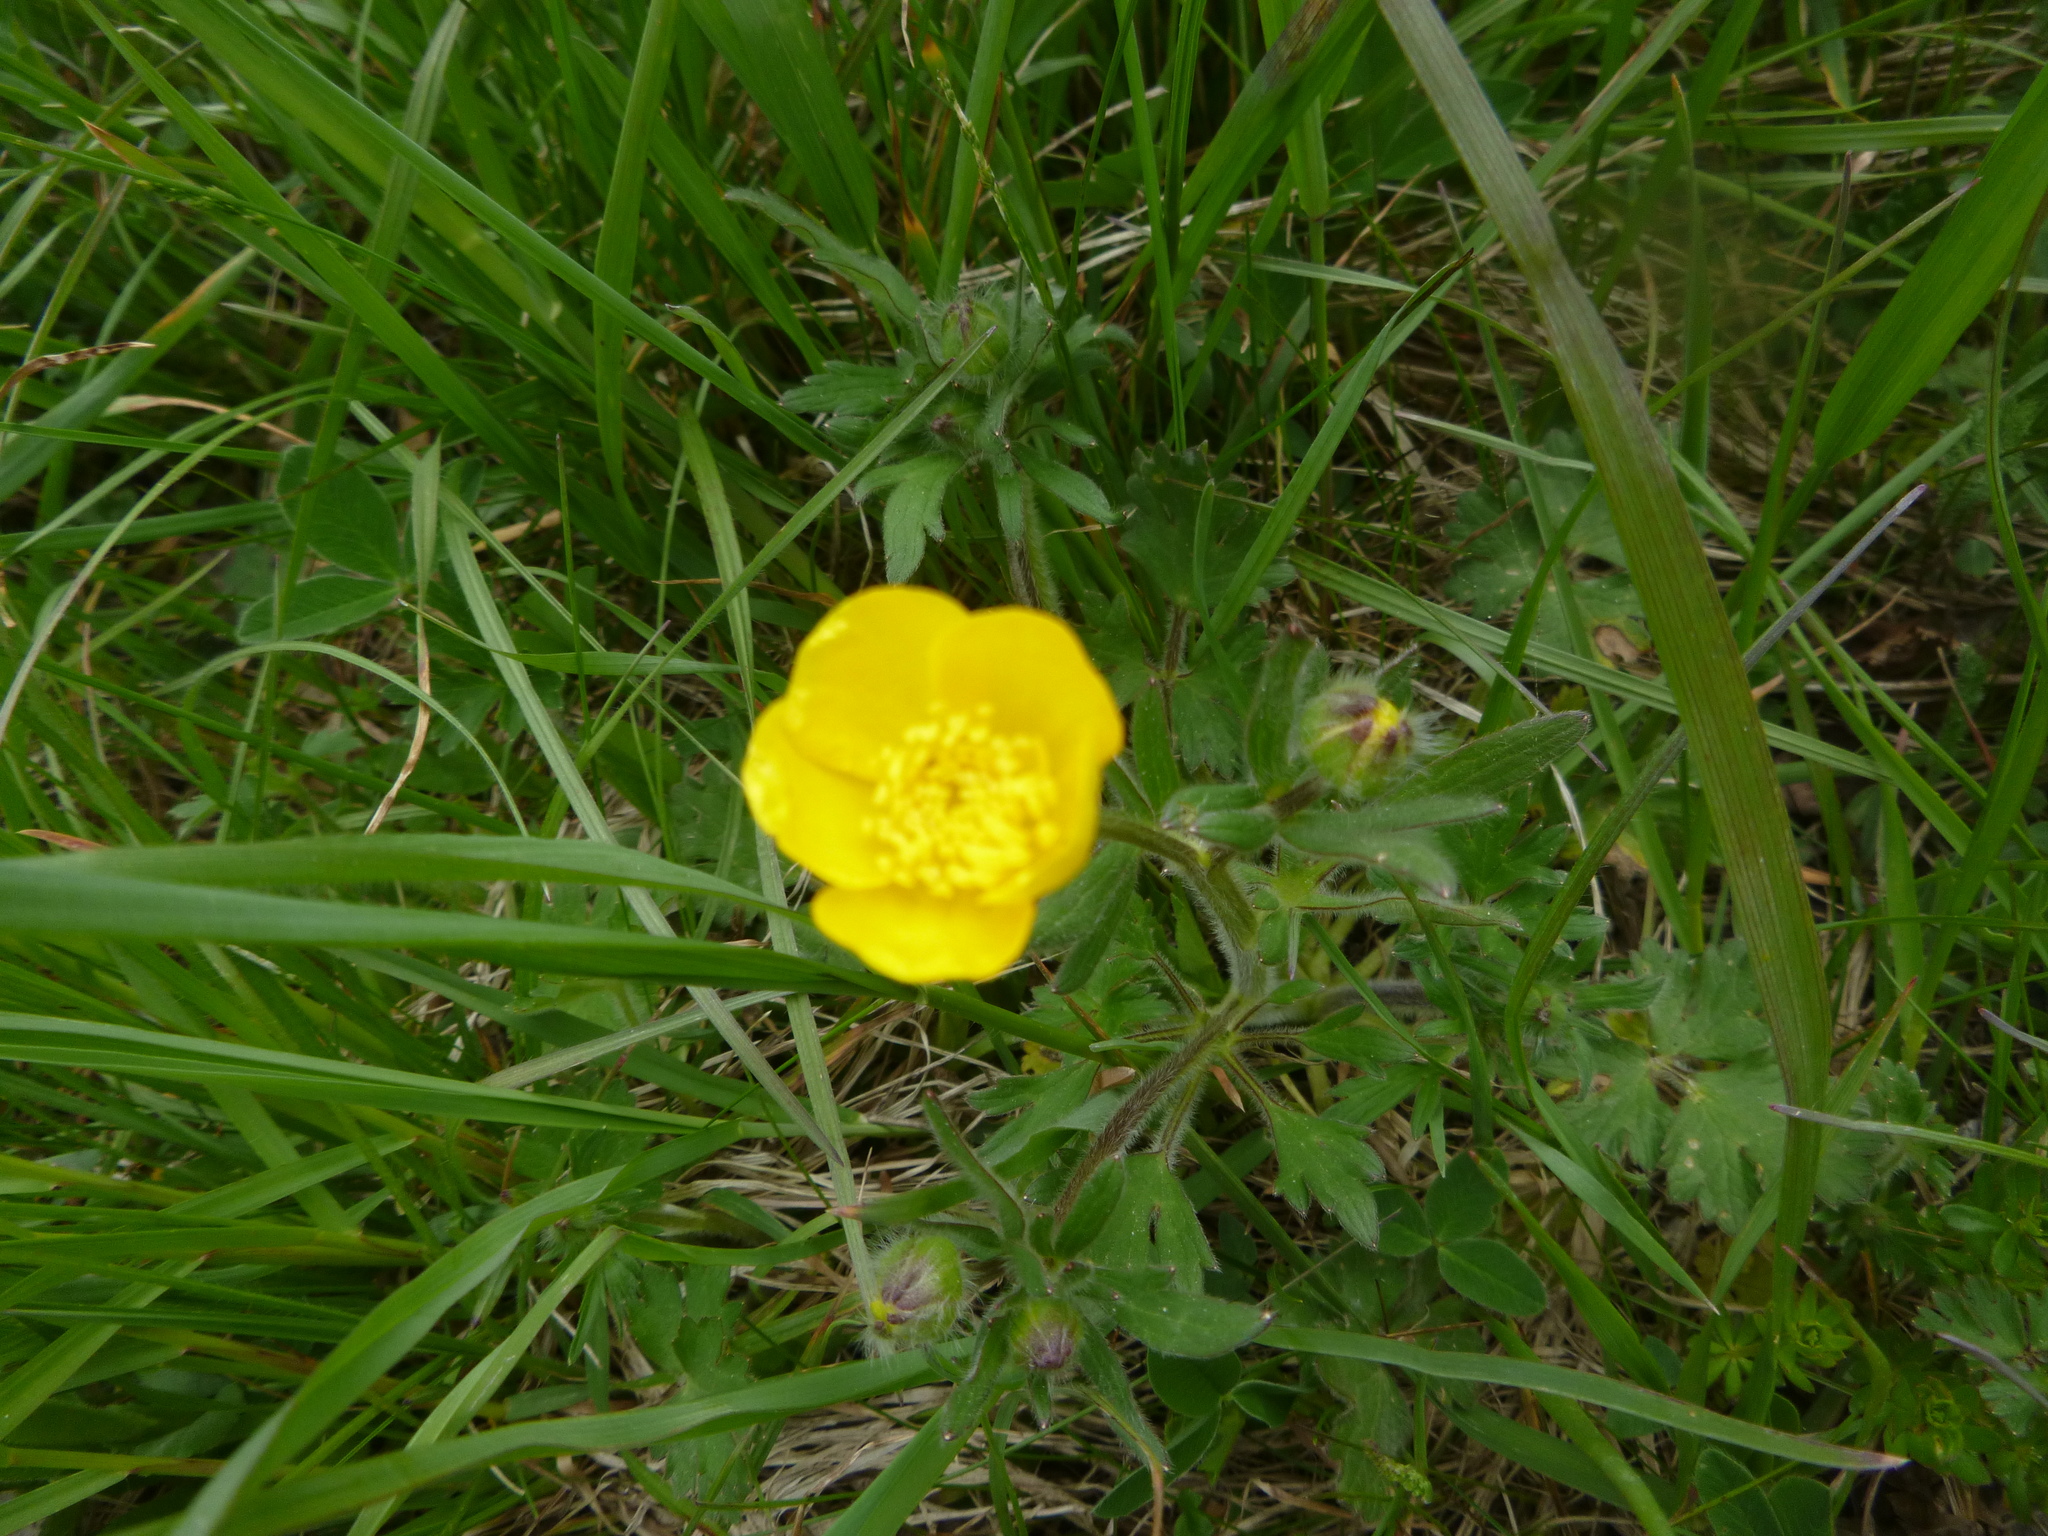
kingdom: Plantae
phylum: Tracheophyta
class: Magnoliopsida
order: Ranunculales
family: Ranunculaceae
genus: Ranunculus
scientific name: Ranunculus bulbosus
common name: Bulbous buttercup
